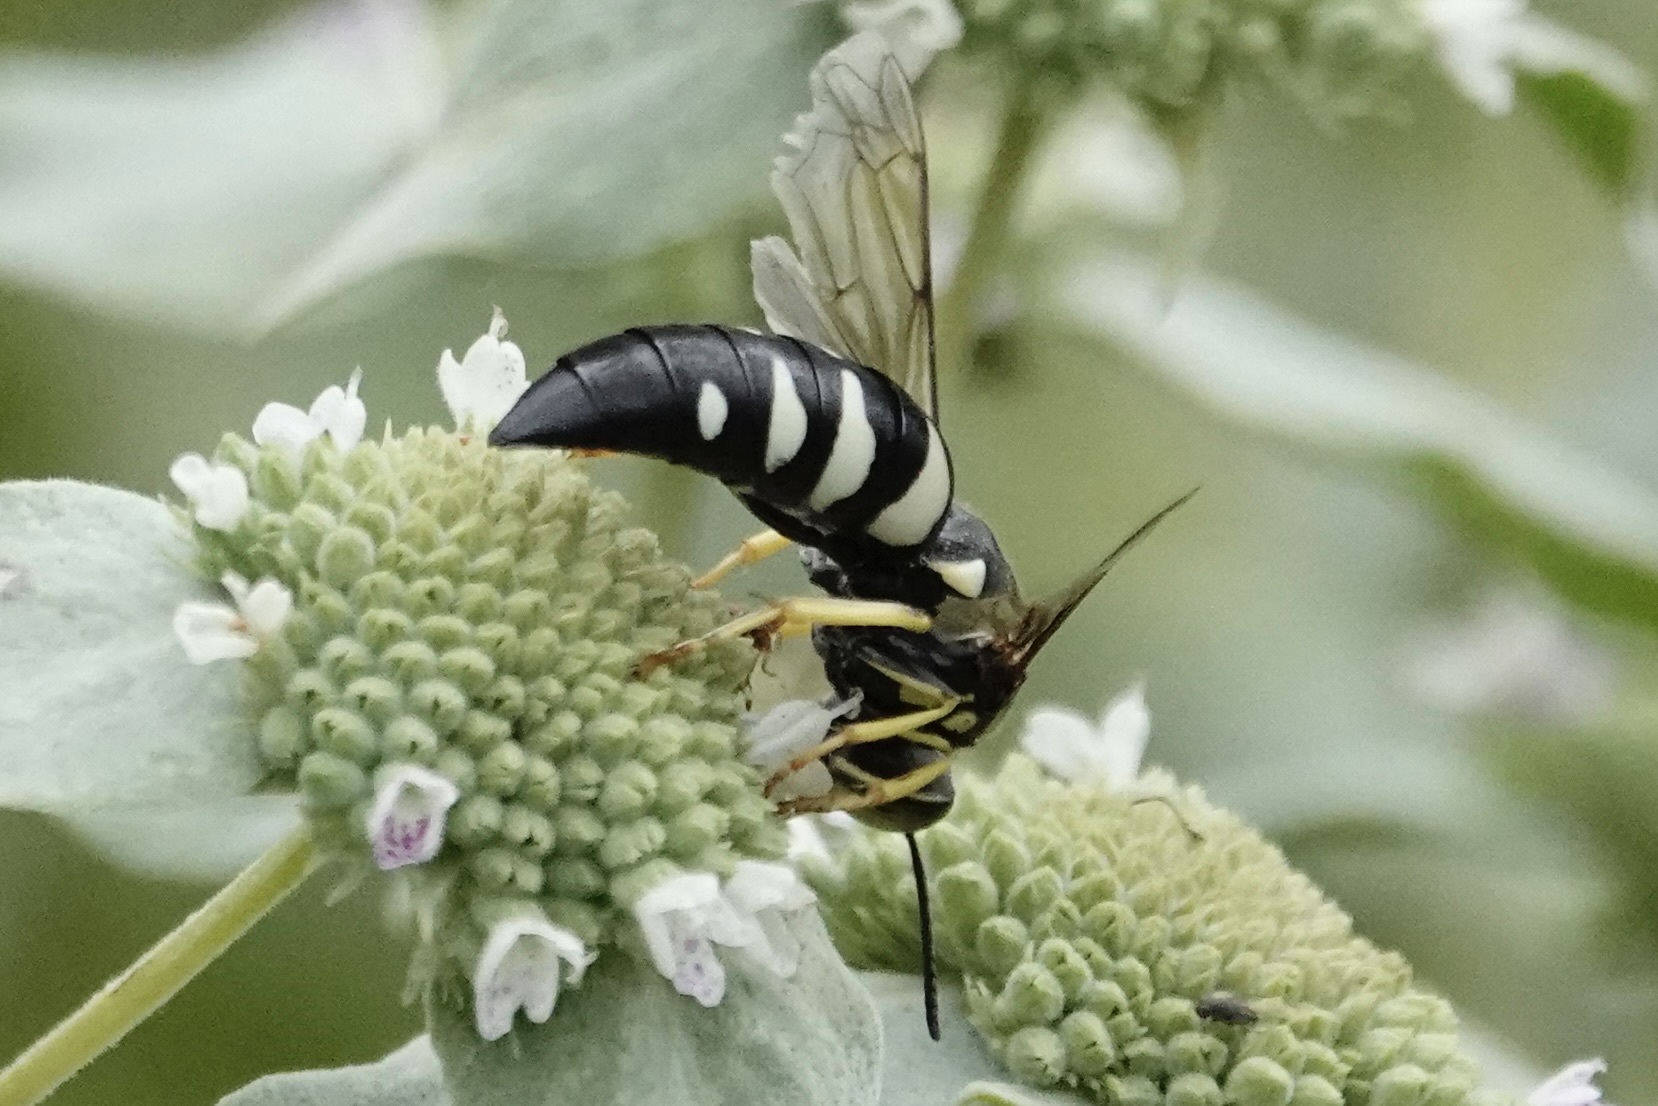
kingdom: Animalia
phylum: Arthropoda
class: Insecta
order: Hymenoptera
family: Crabronidae
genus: Bicyrtes
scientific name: Bicyrtes quadrifasciatus
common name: Four-banded stink bug hunter wasp
